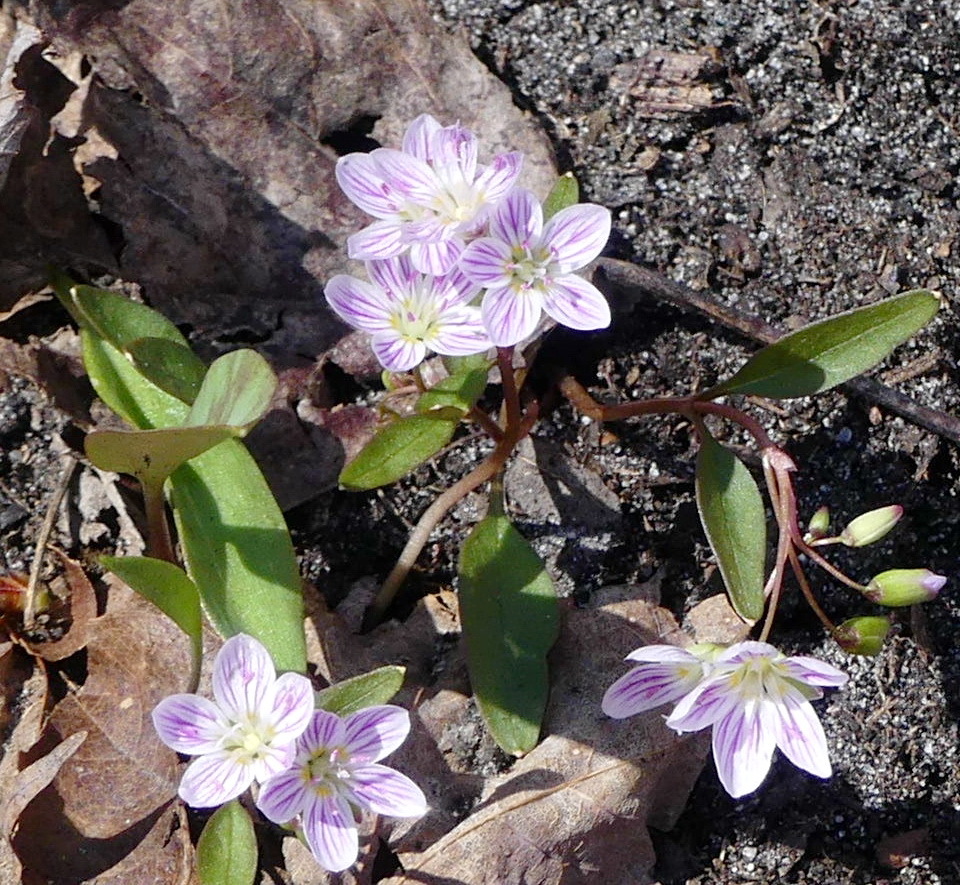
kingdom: Plantae
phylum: Tracheophyta
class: Magnoliopsida
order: Caryophyllales
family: Montiaceae
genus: Claytonia
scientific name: Claytonia caroliniana
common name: Carolina spring beauty
